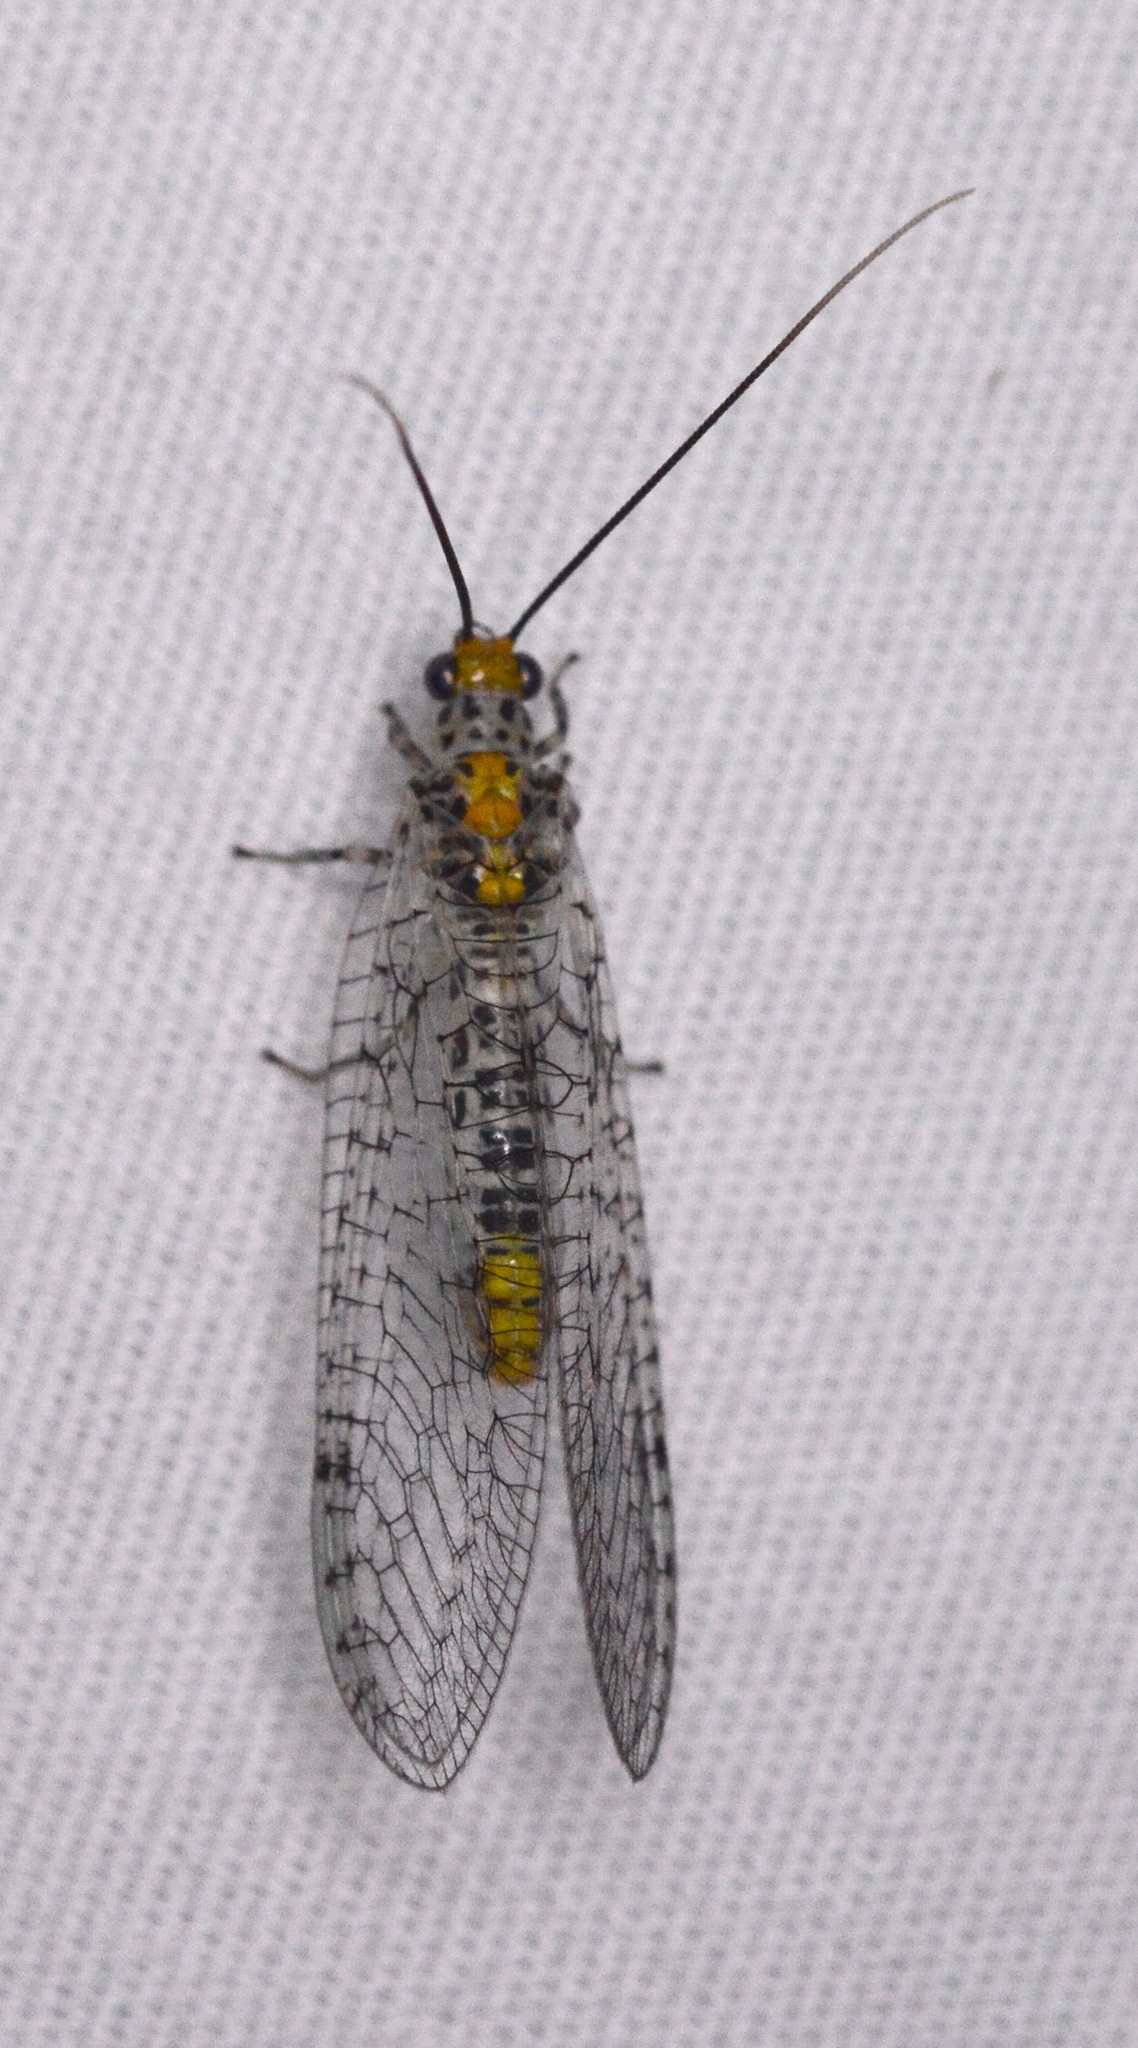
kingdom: Animalia
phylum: Arthropoda
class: Insecta
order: Neuroptera
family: Chrysopidae
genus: Abachrysa
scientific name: Abachrysa eureka
